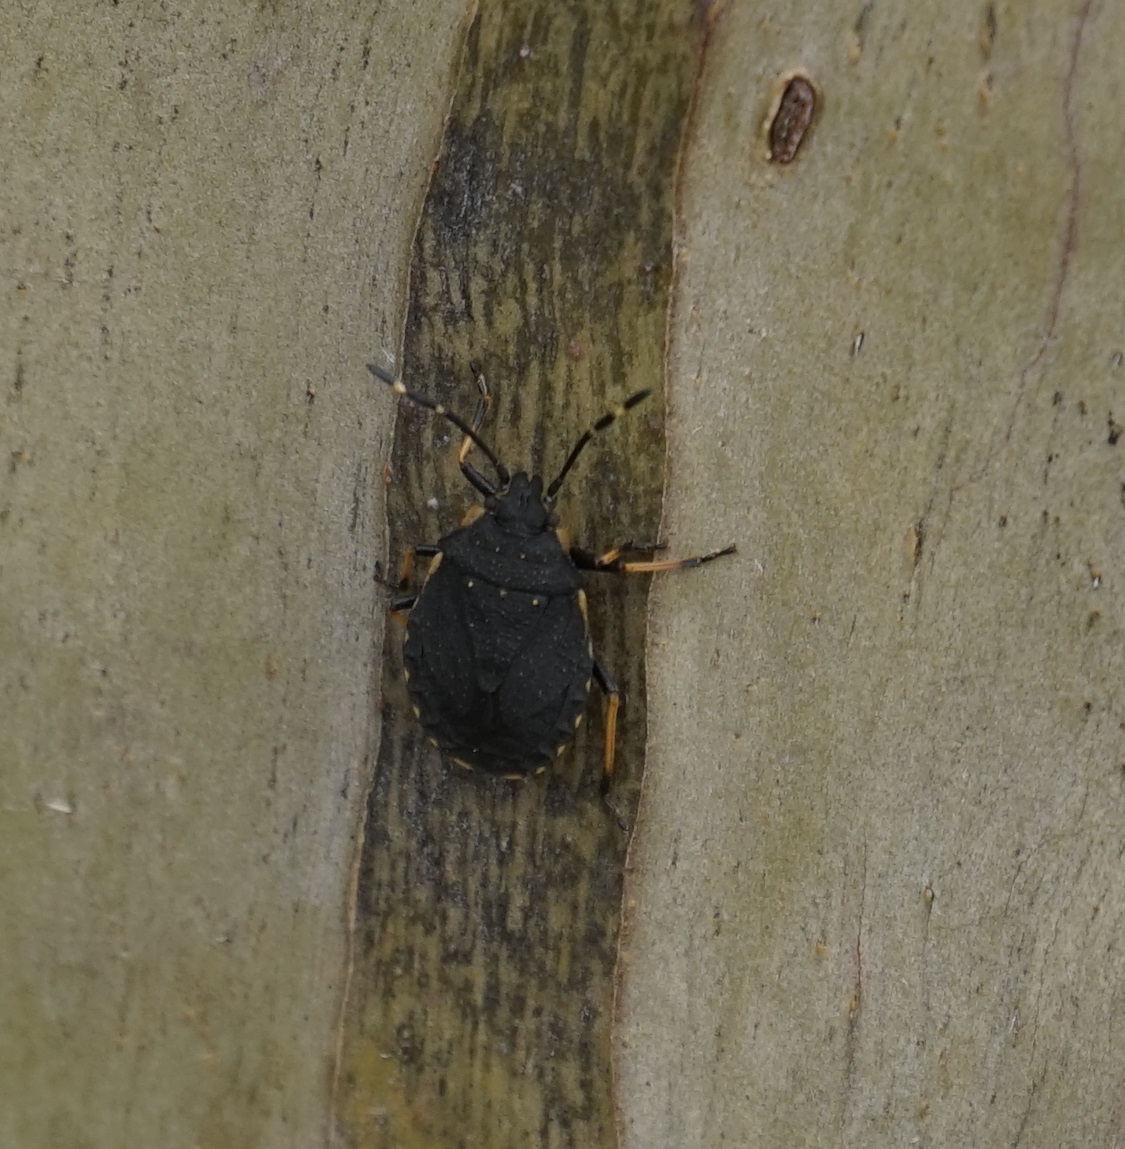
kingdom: Animalia
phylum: Arthropoda
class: Insecta
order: Hemiptera
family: Pentatomidae
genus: Diemenia
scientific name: Diemenia
